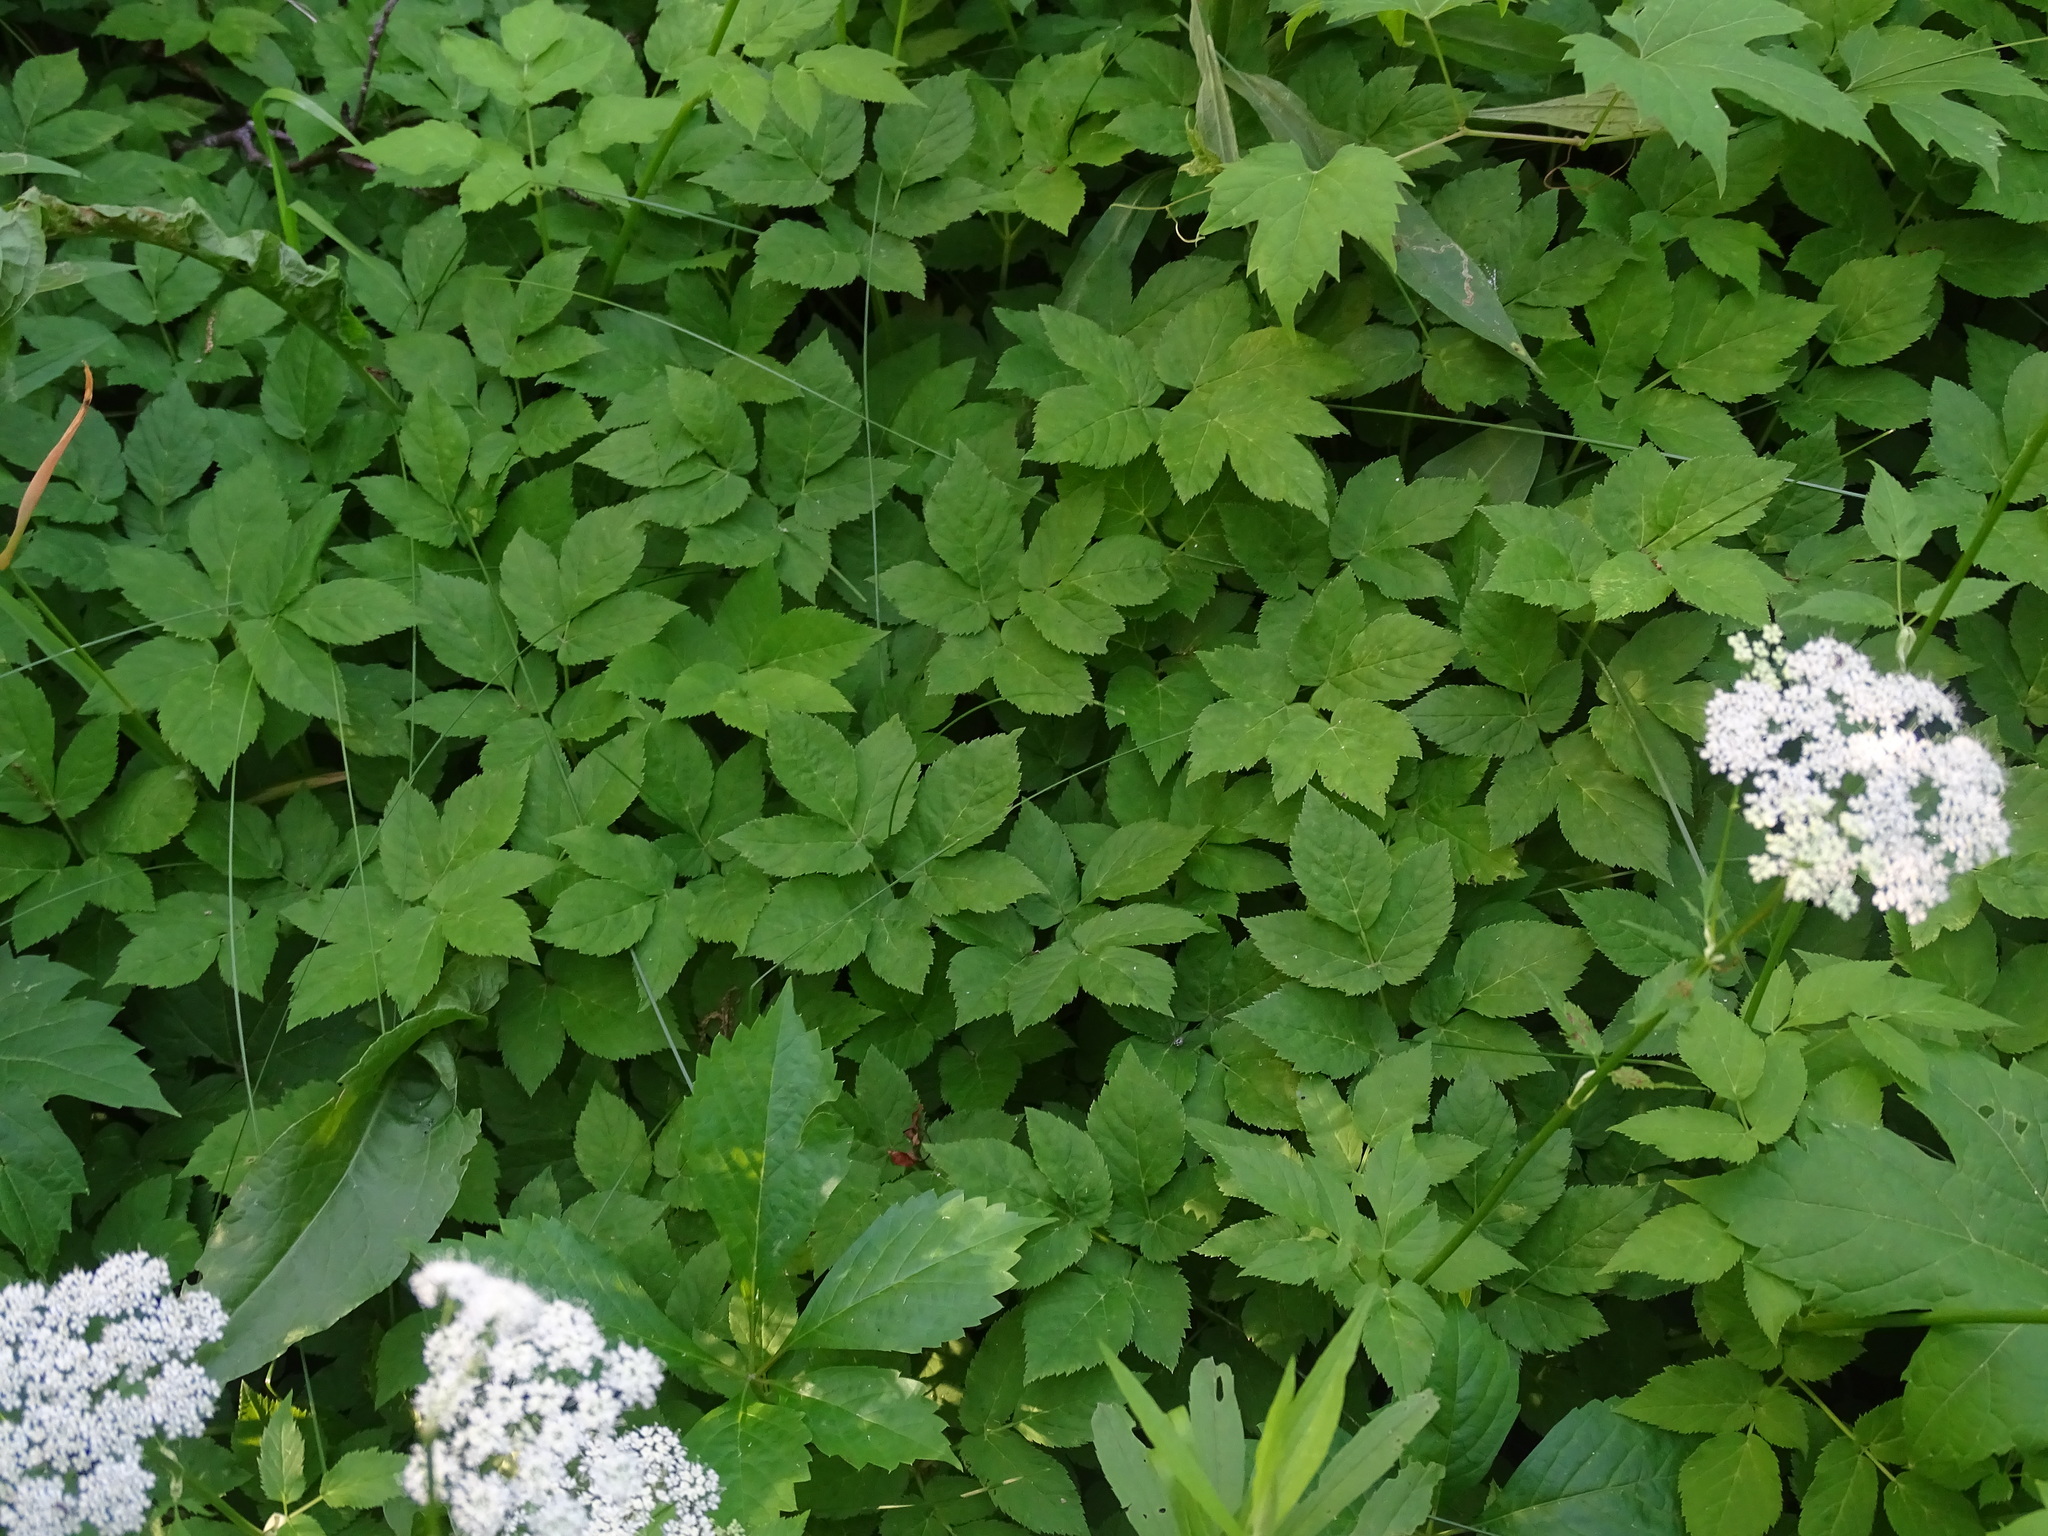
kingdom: Plantae
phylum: Tracheophyta
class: Magnoliopsida
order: Apiales
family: Apiaceae
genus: Aegopodium
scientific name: Aegopodium podagraria
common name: Ground-elder
